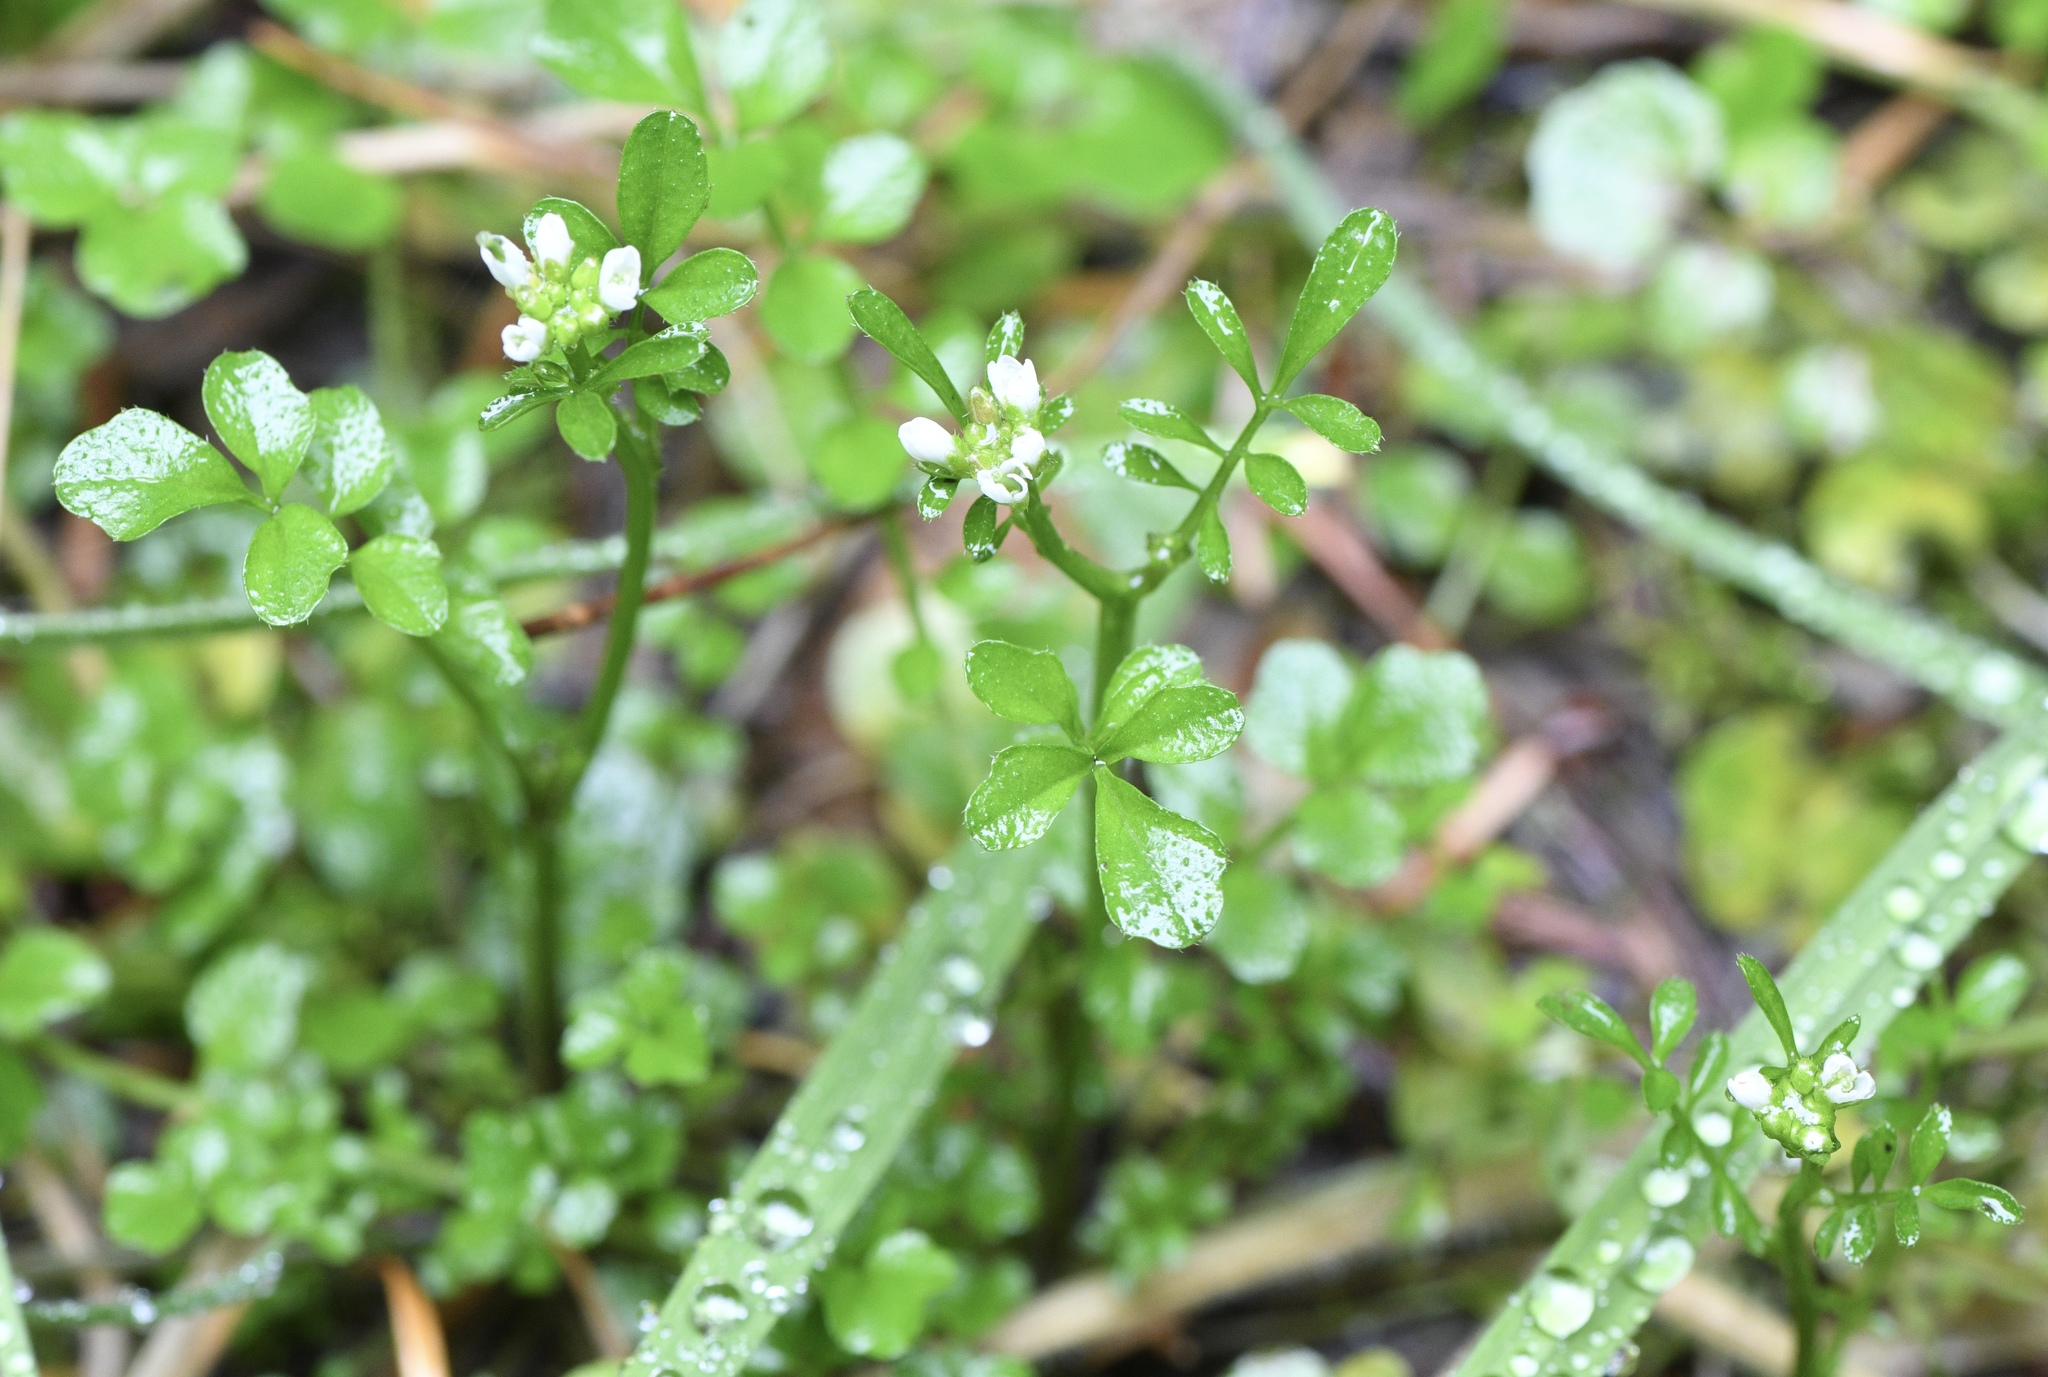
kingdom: Plantae
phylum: Tracheophyta
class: Magnoliopsida
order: Brassicales
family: Brassicaceae
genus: Cardamine
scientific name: Cardamine hirsuta
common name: Hairy bittercress
